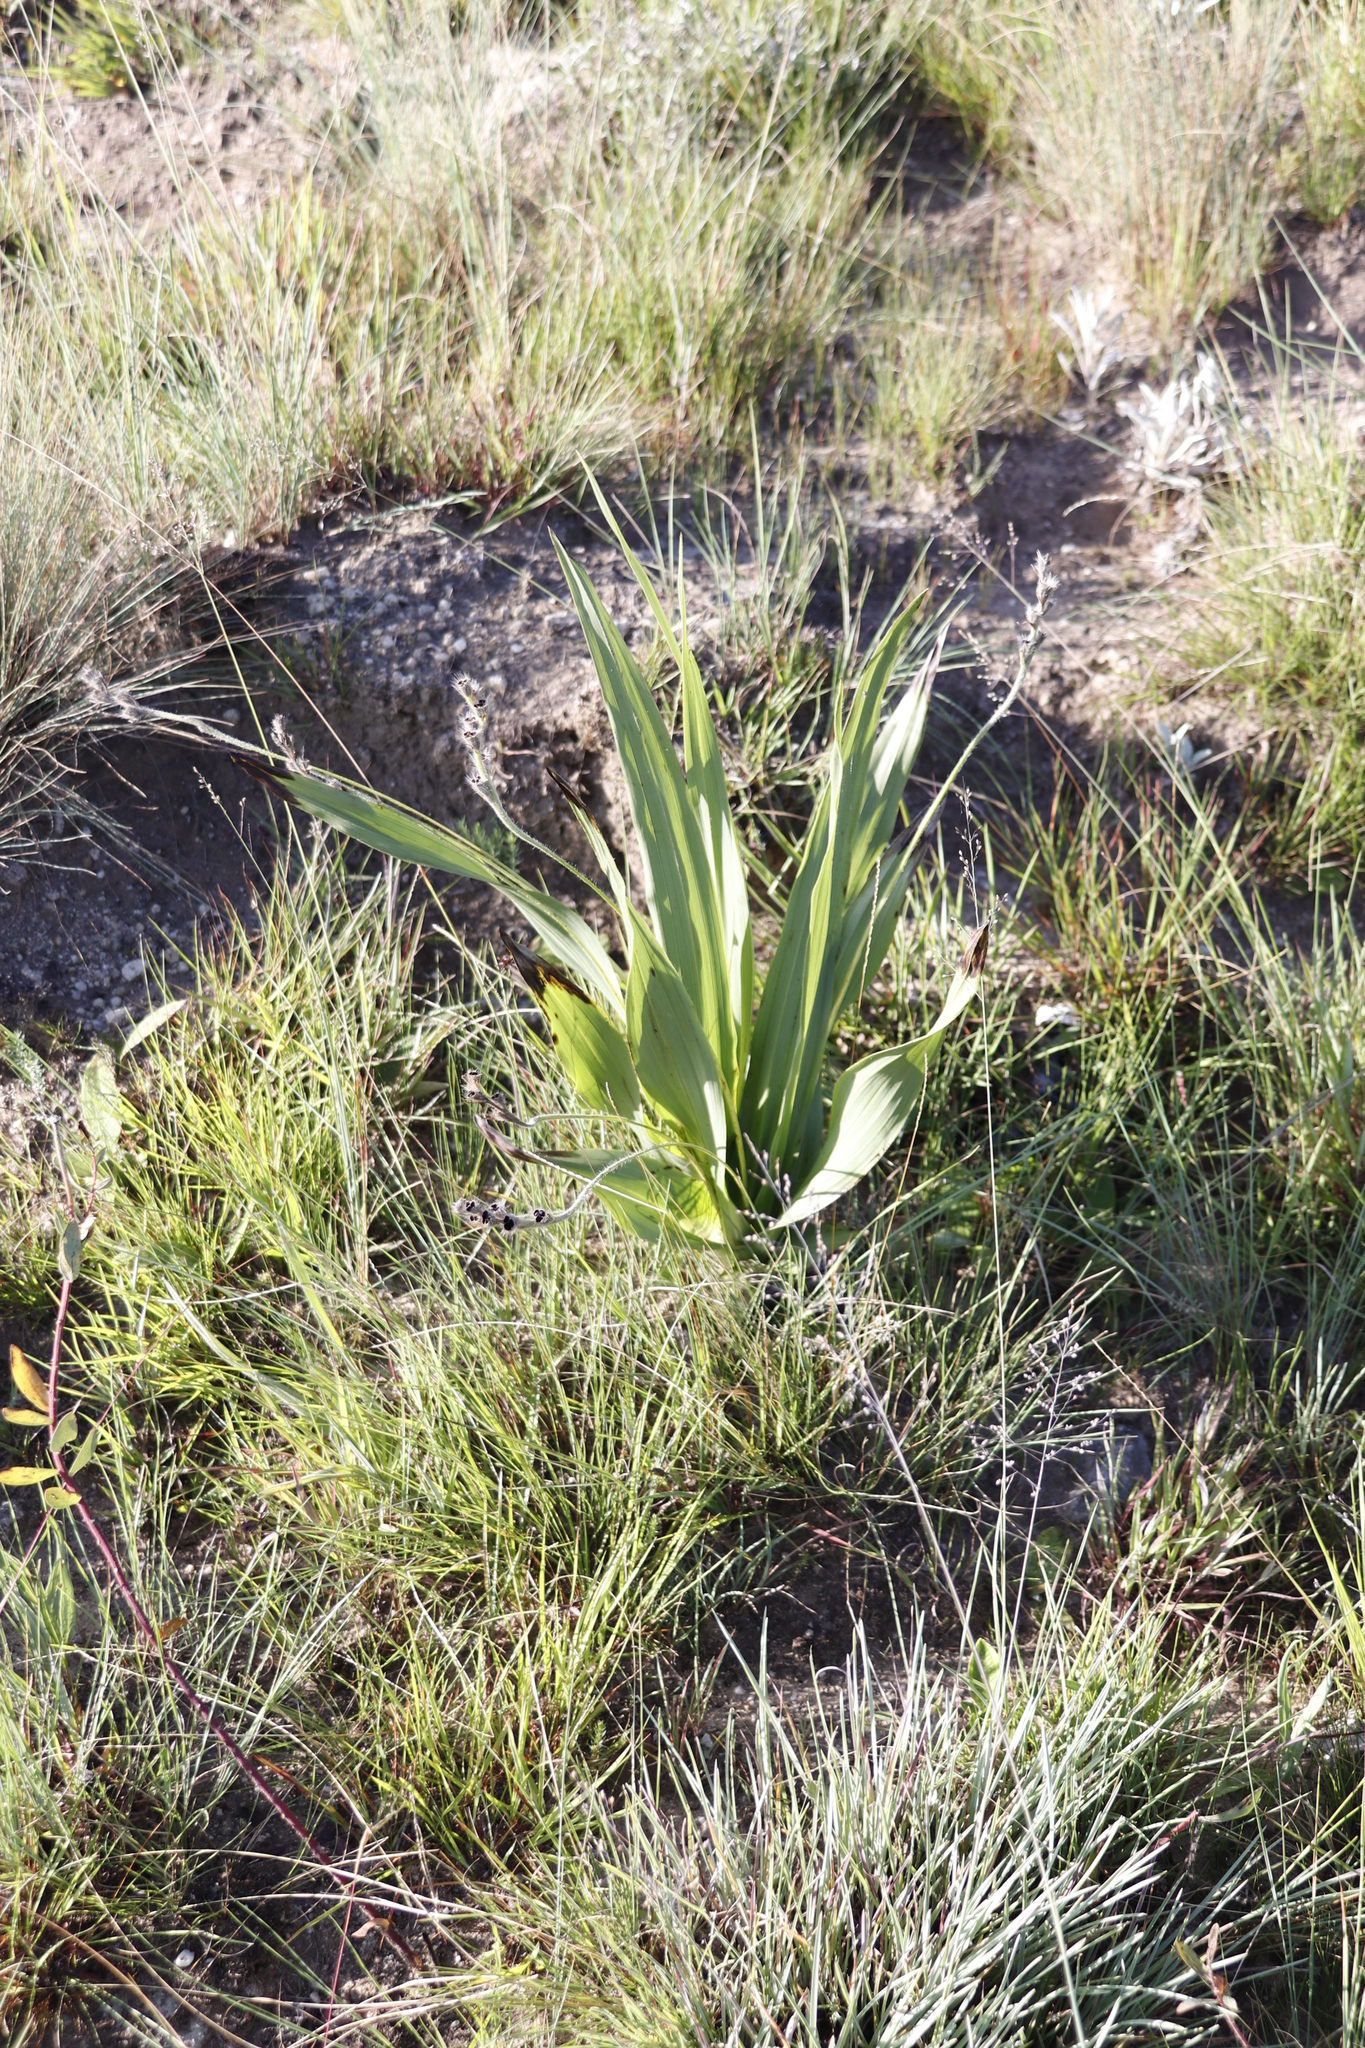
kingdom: Plantae
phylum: Tracheophyta
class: Liliopsida
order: Asparagales
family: Hypoxidaceae
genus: Hypoxis
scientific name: Hypoxis colchicifolia
